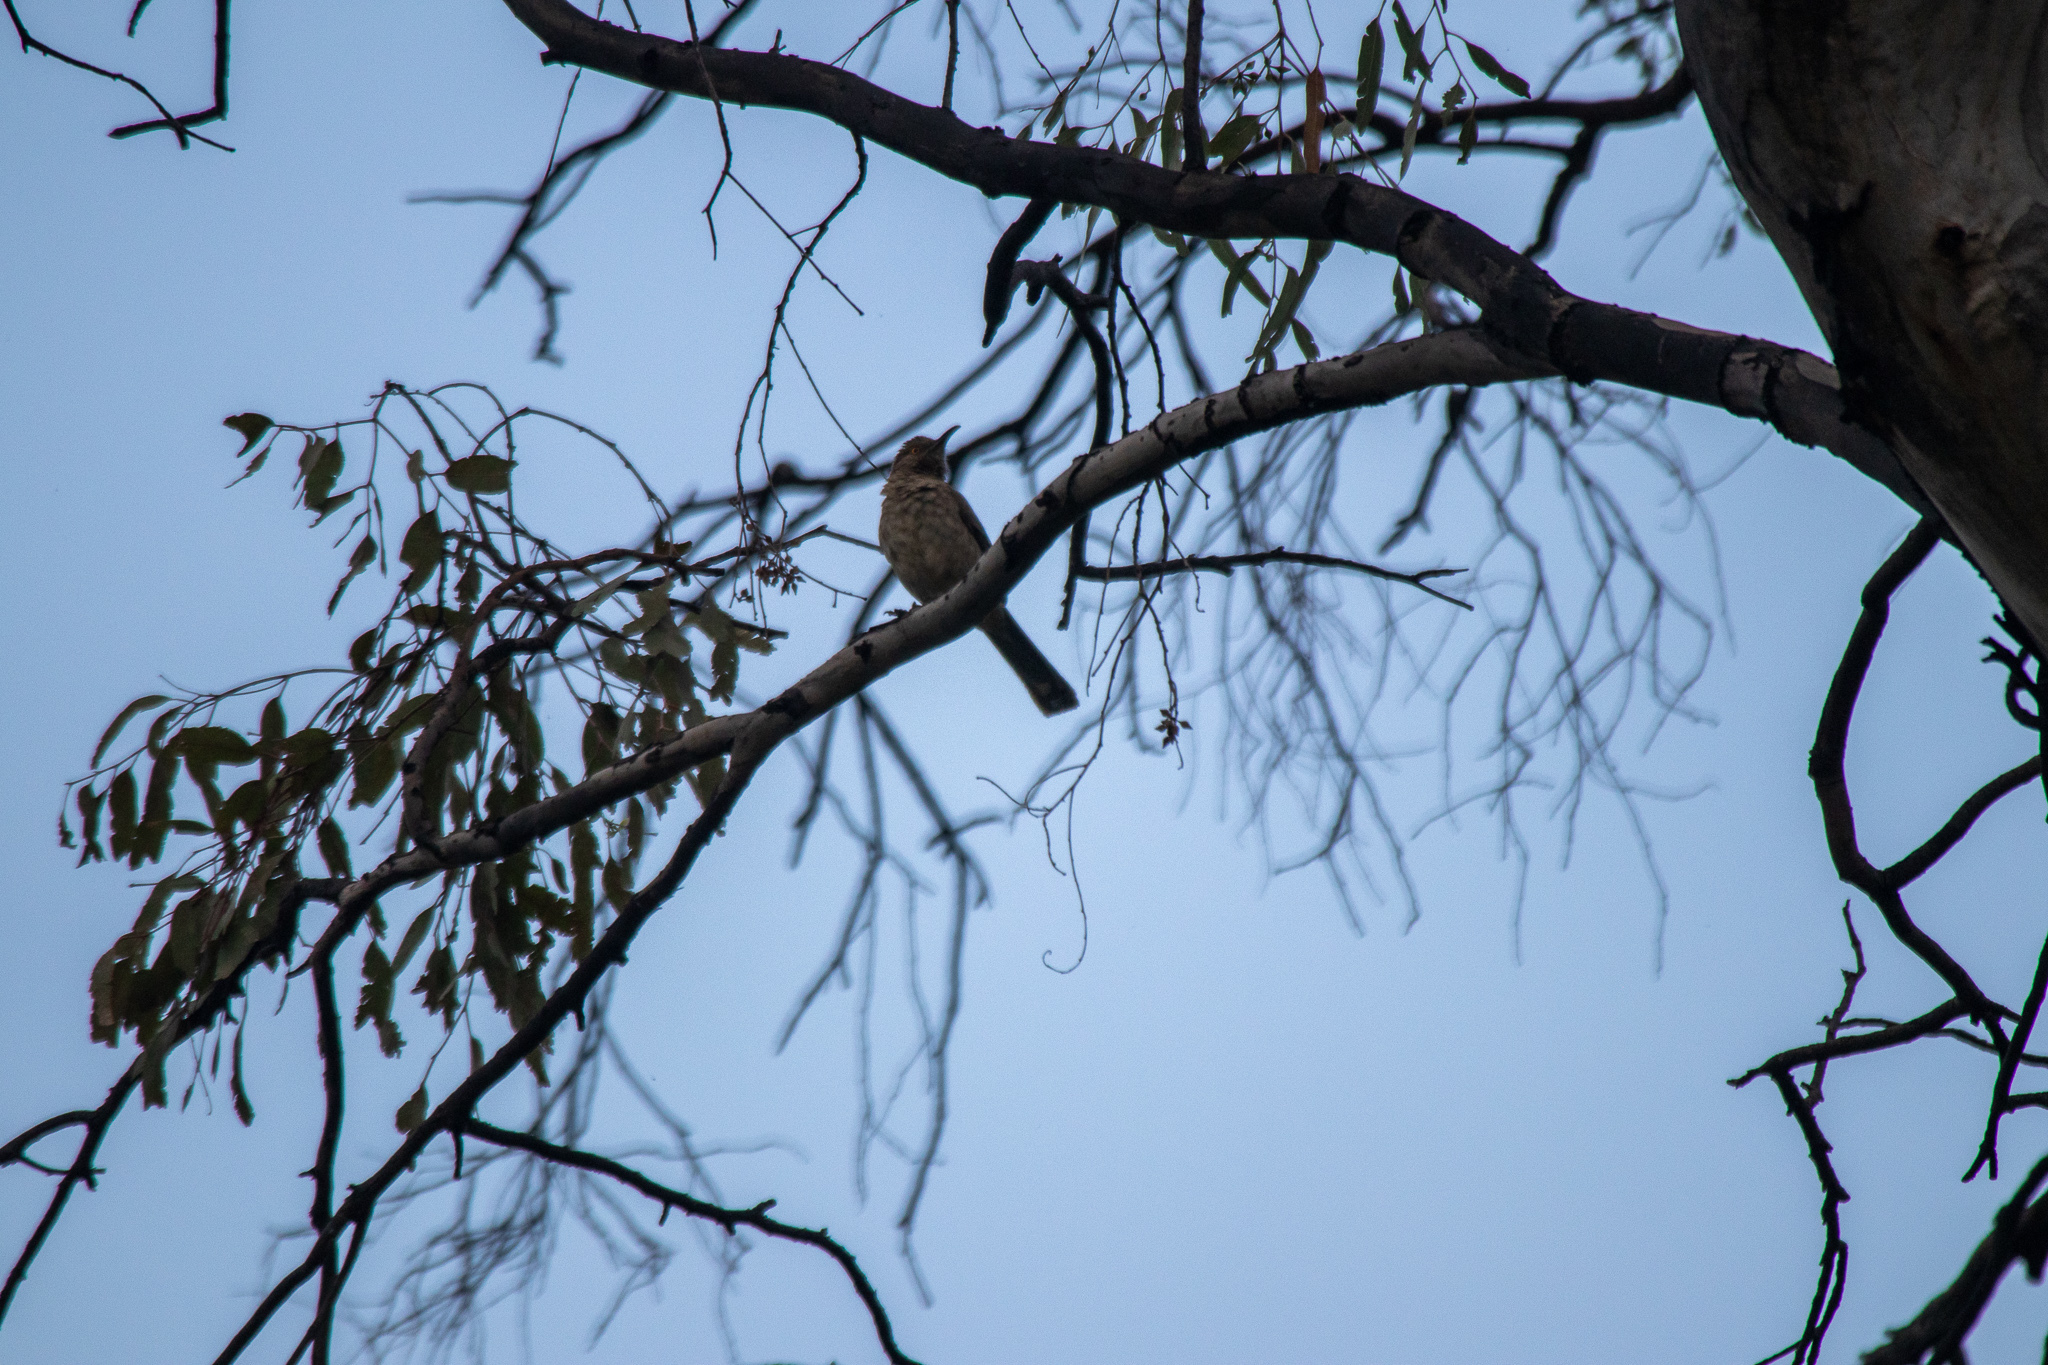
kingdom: Animalia
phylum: Chordata
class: Aves
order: Passeriformes
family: Mimidae
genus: Toxostoma
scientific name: Toxostoma curvirostre
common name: Curve-billed thrasher
